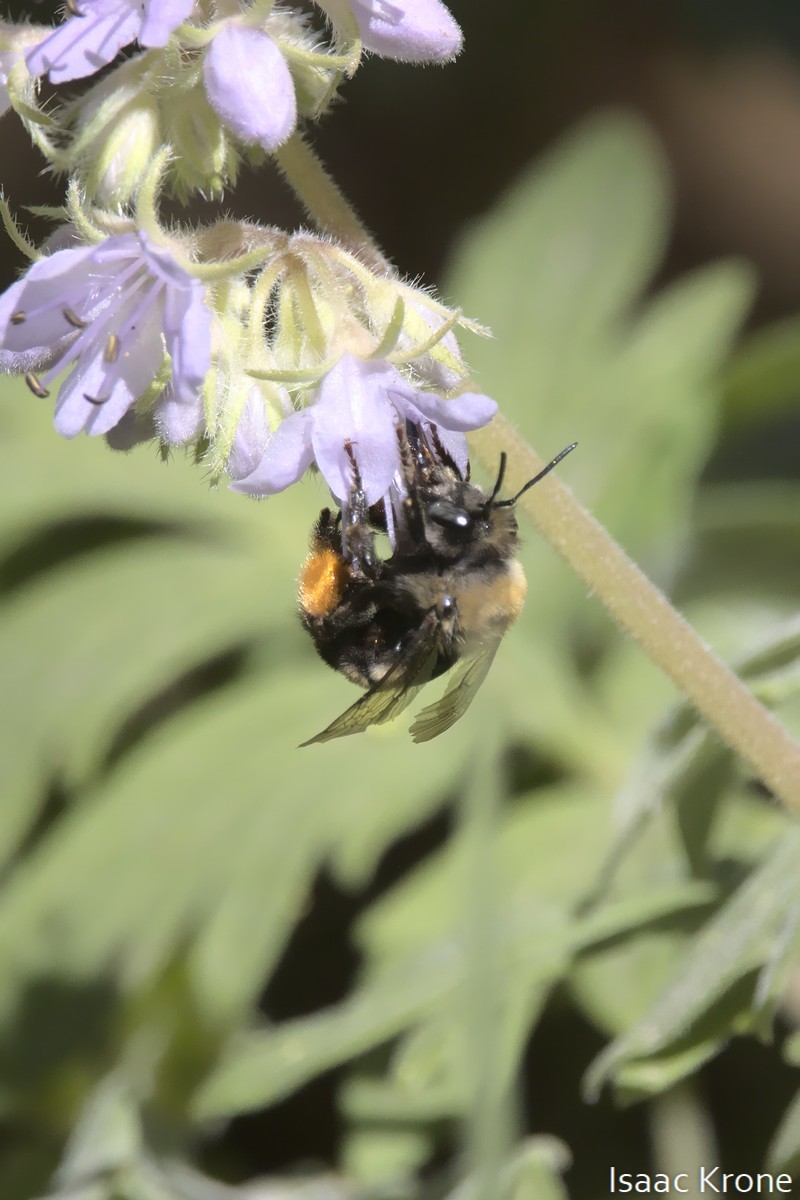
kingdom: Animalia
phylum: Arthropoda
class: Insecta
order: Hymenoptera
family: Apidae
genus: Habropoda
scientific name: Habropoda cineraria
